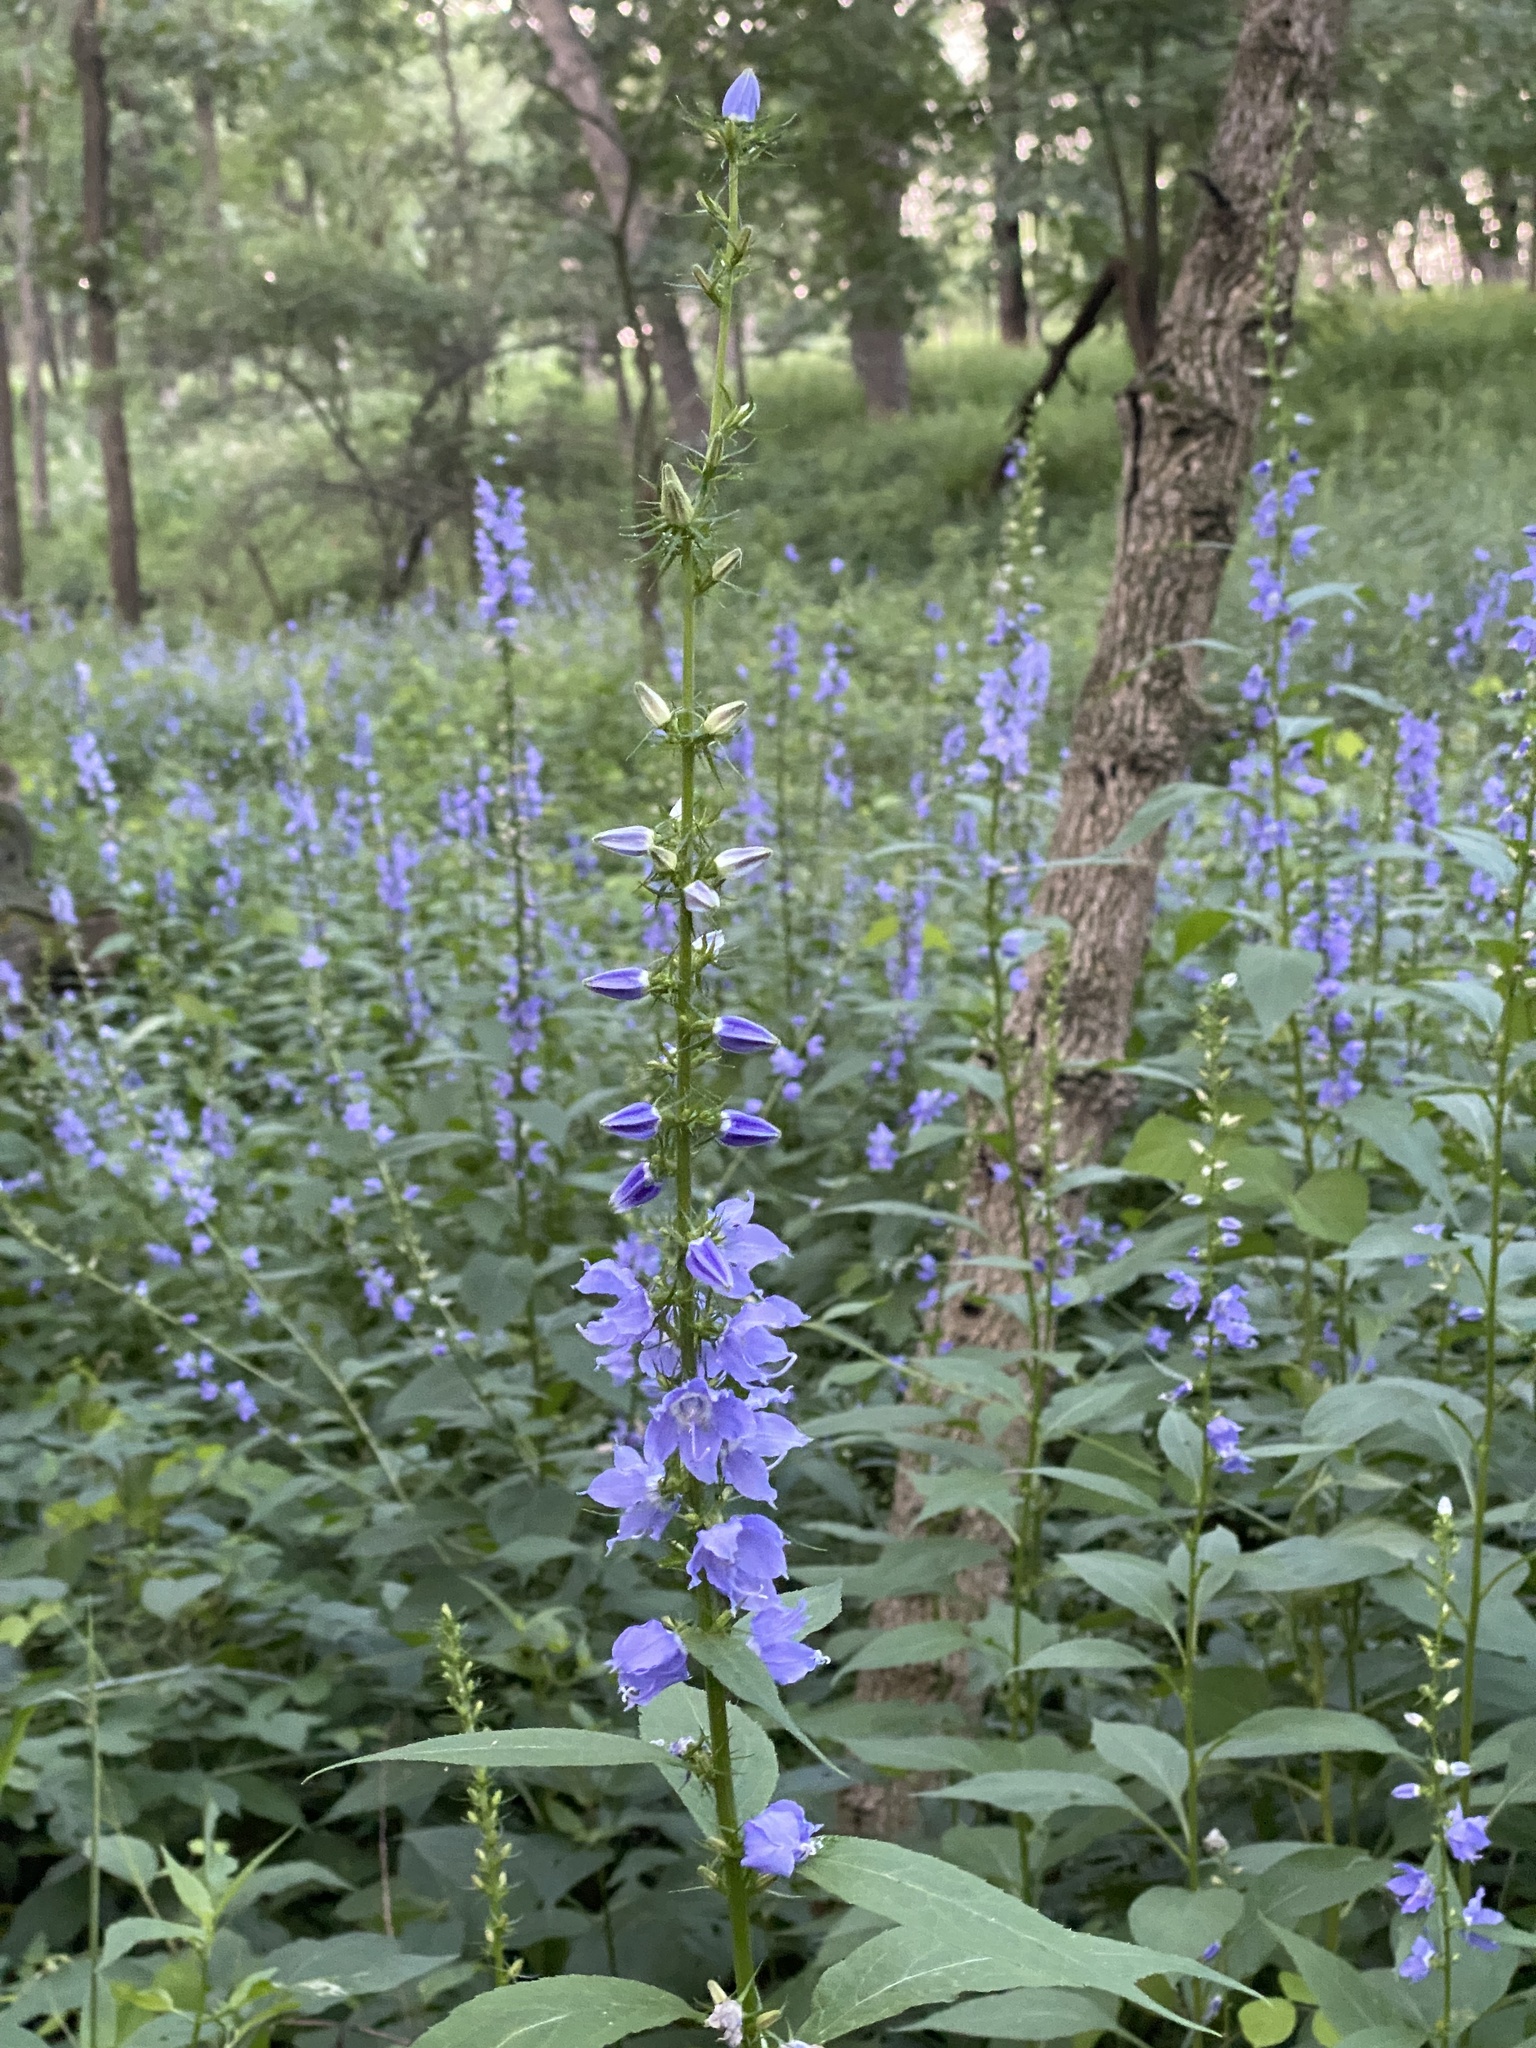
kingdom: Plantae
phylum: Tracheophyta
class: Magnoliopsida
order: Asterales
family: Campanulaceae
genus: Campanulastrum
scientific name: Campanulastrum americanum
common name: American bellflower
